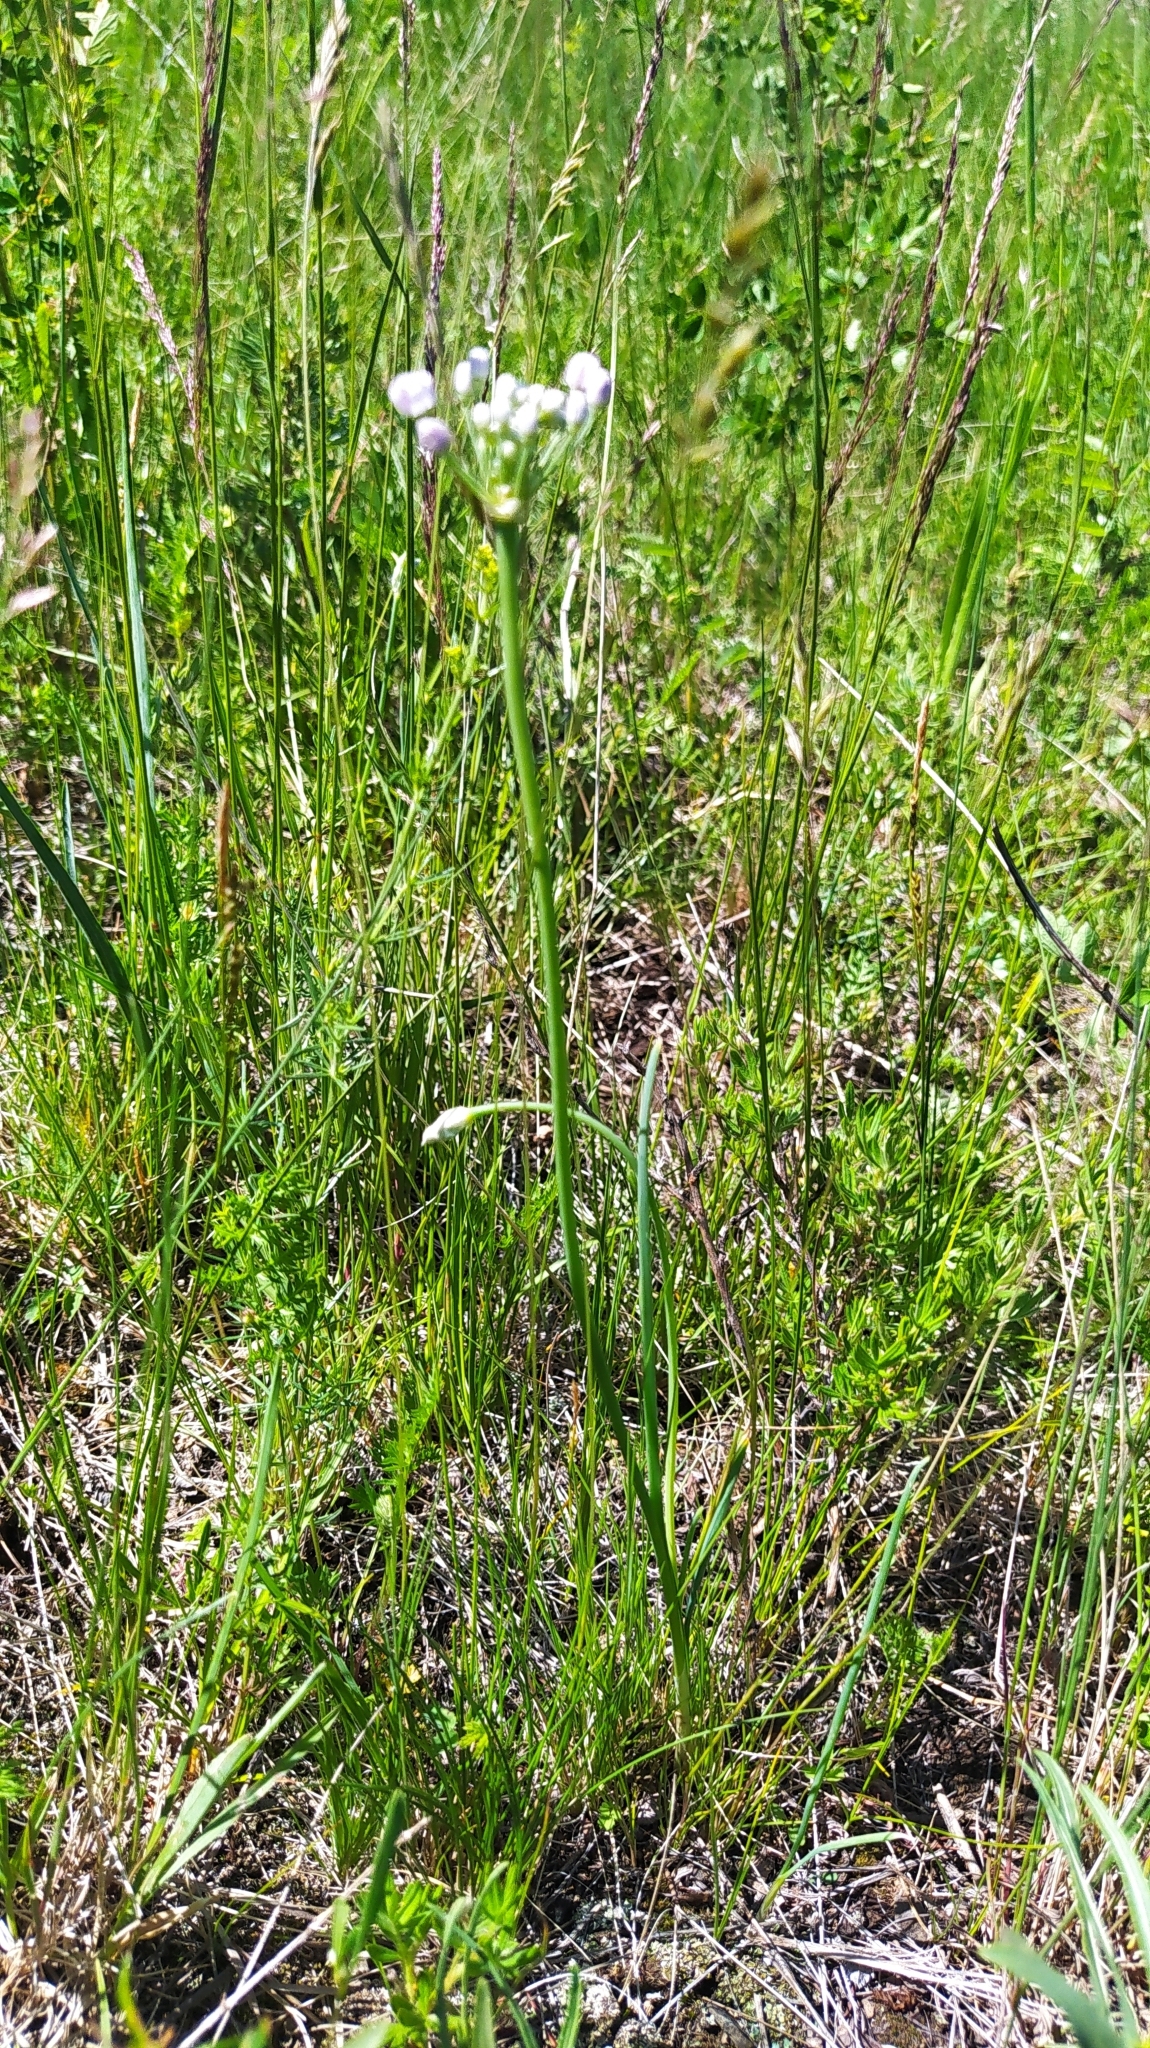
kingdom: Plantae
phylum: Tracheophyta
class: Liliopsida
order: Asparagales
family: Amaryllidaceae
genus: Allium
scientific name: Allium anisopodium
